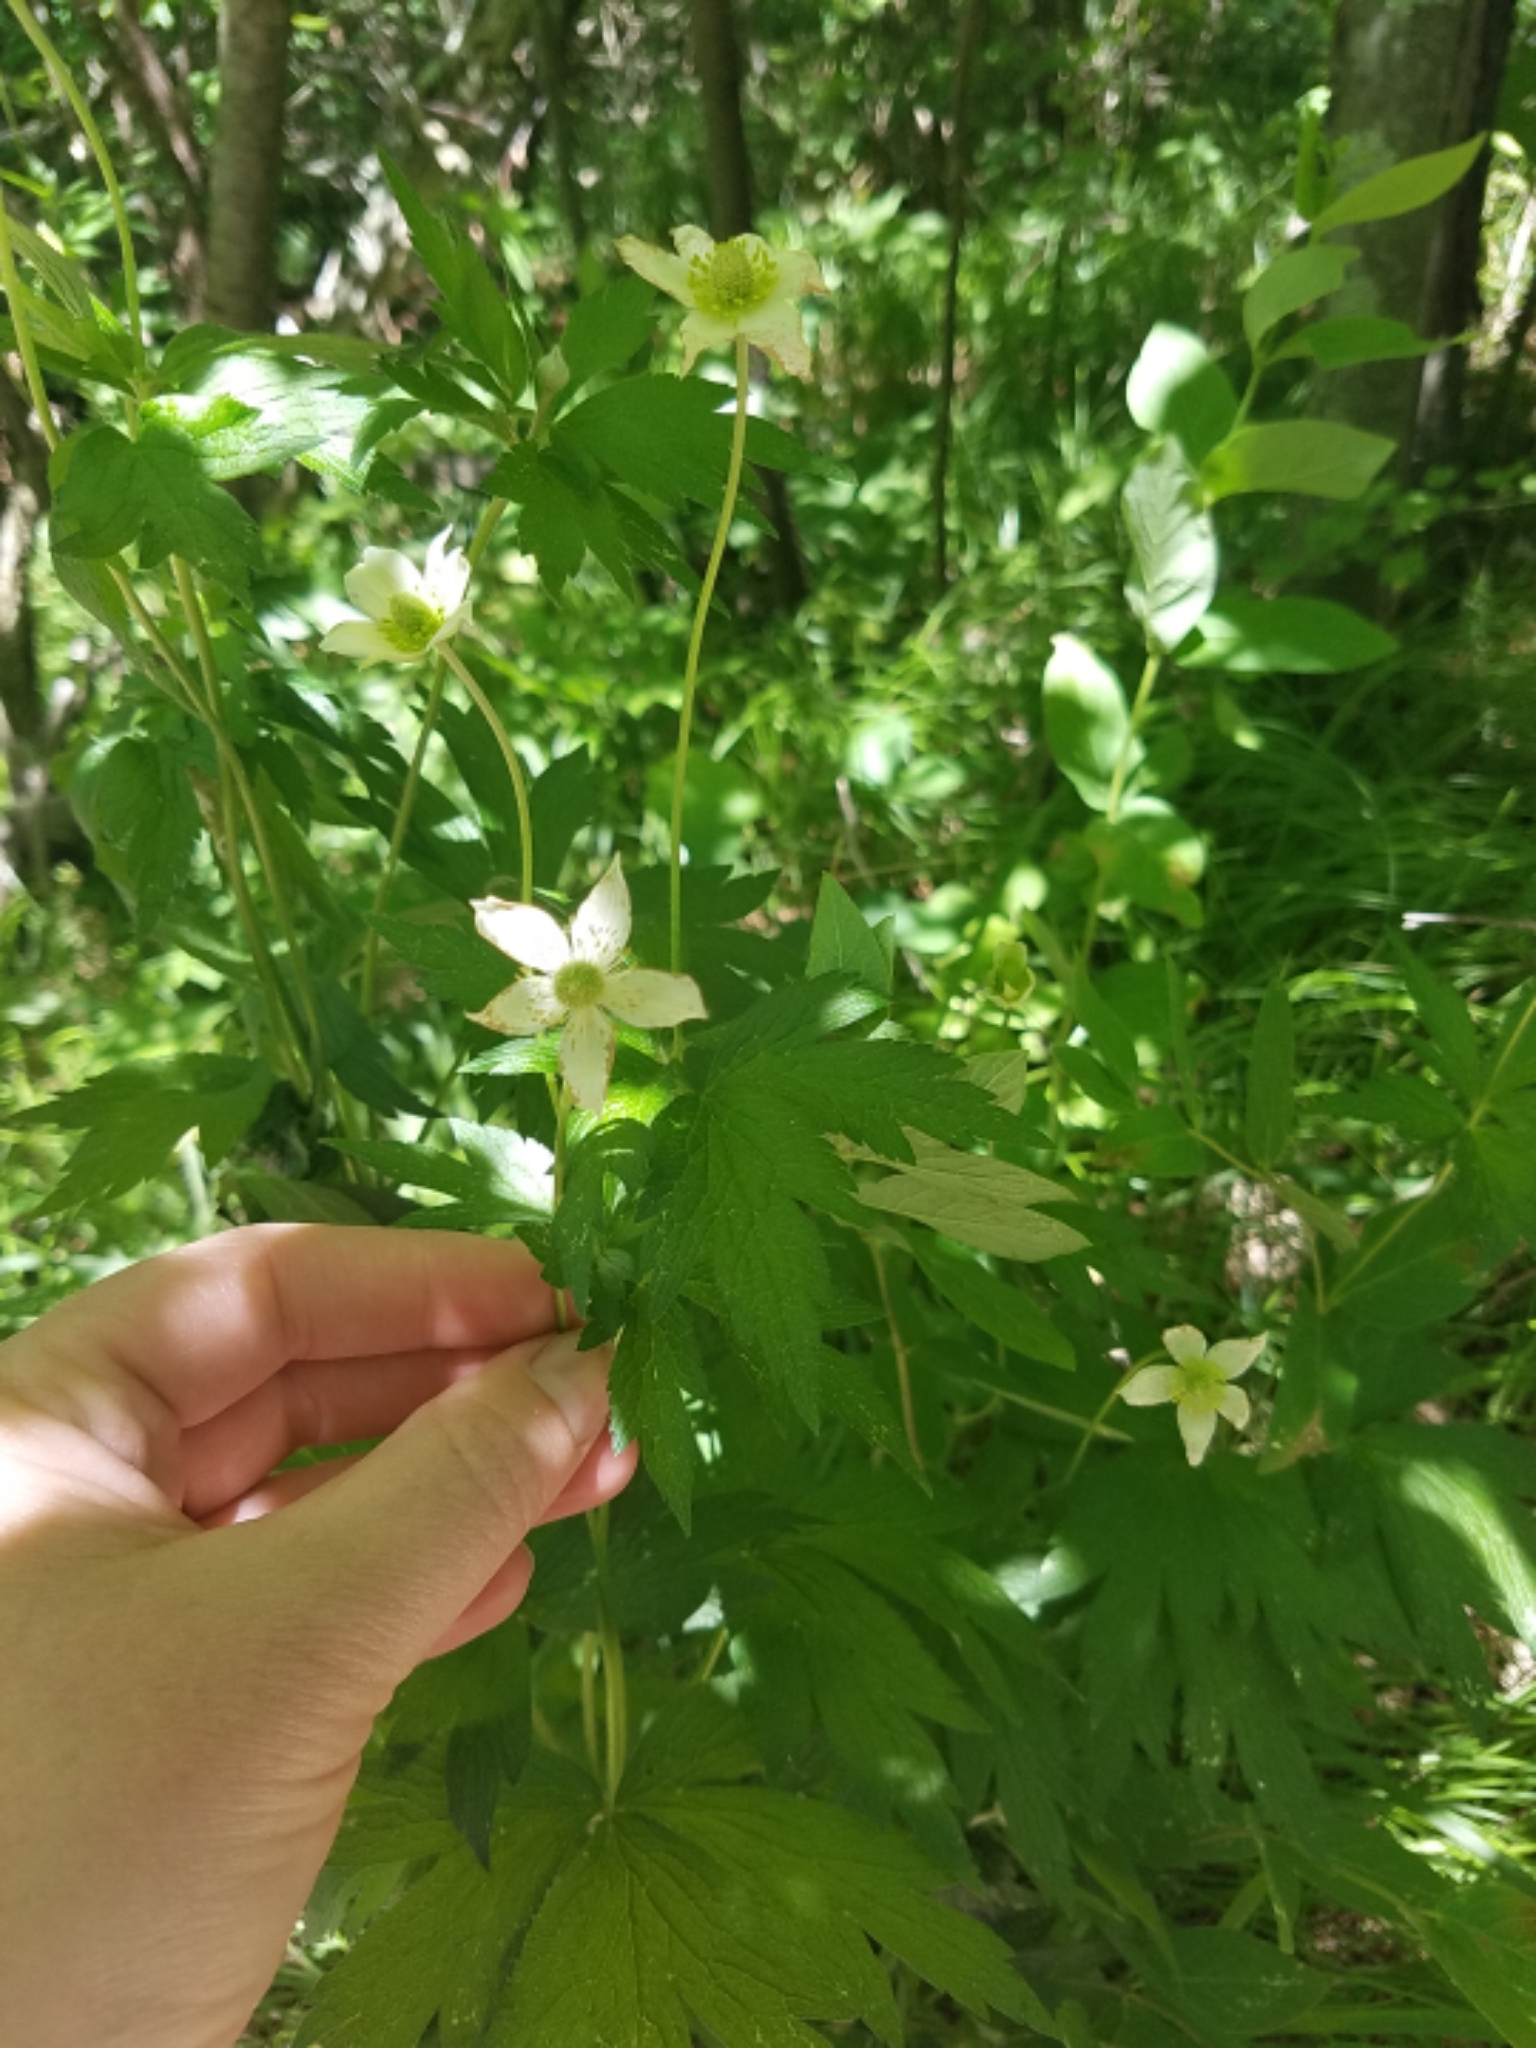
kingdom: Plantae
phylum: Tracheophyta
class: Magnoliopsida
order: Ranunculales
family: Ranunculaceae
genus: Anemone
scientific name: Anemone virginiana
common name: Tall anemone
